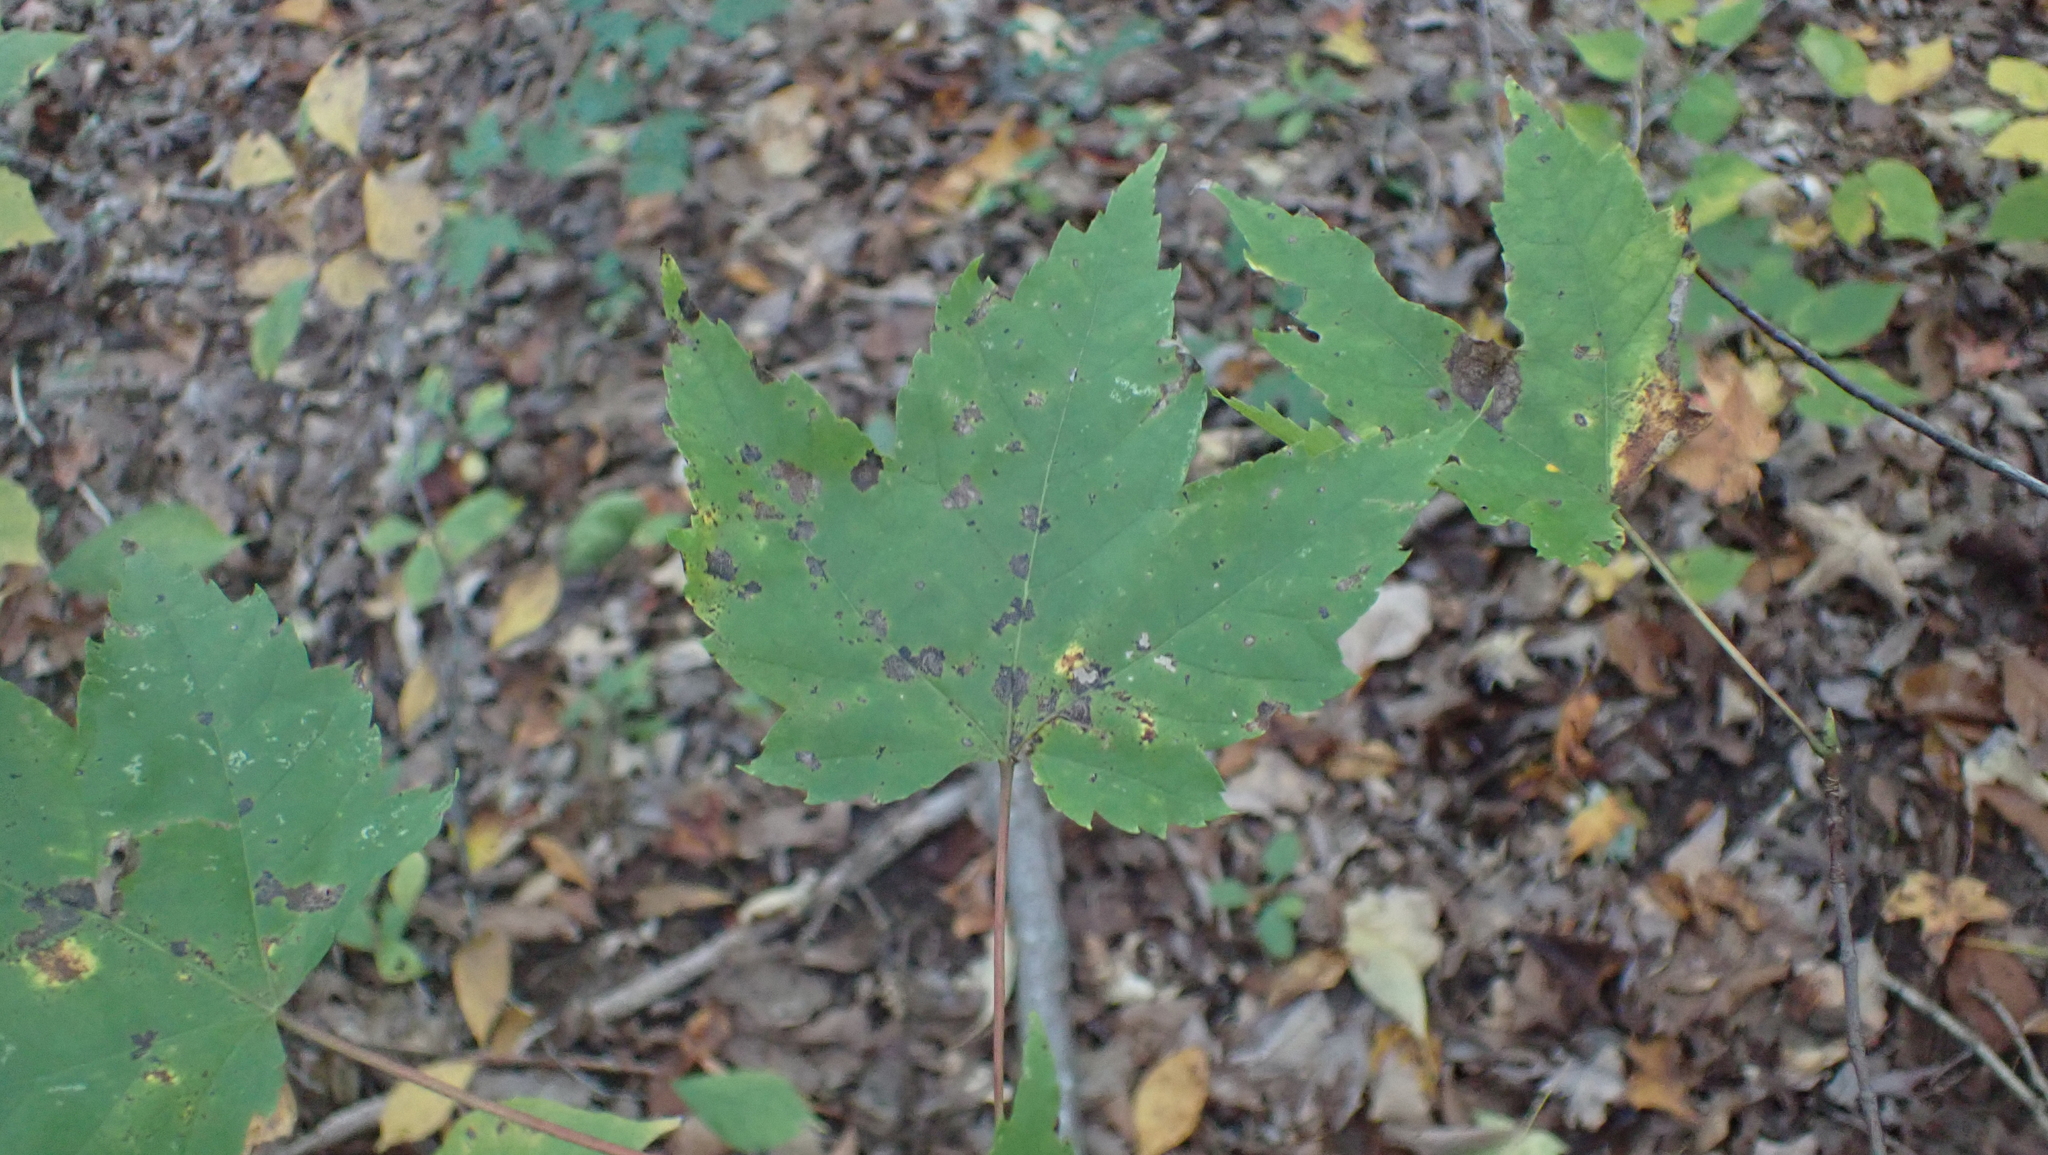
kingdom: Plantae
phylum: Tracheophyta
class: Magnoliopsida
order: Sapindales
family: Sapindaceae
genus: Acer
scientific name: Acer rubrum
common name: Red maple
